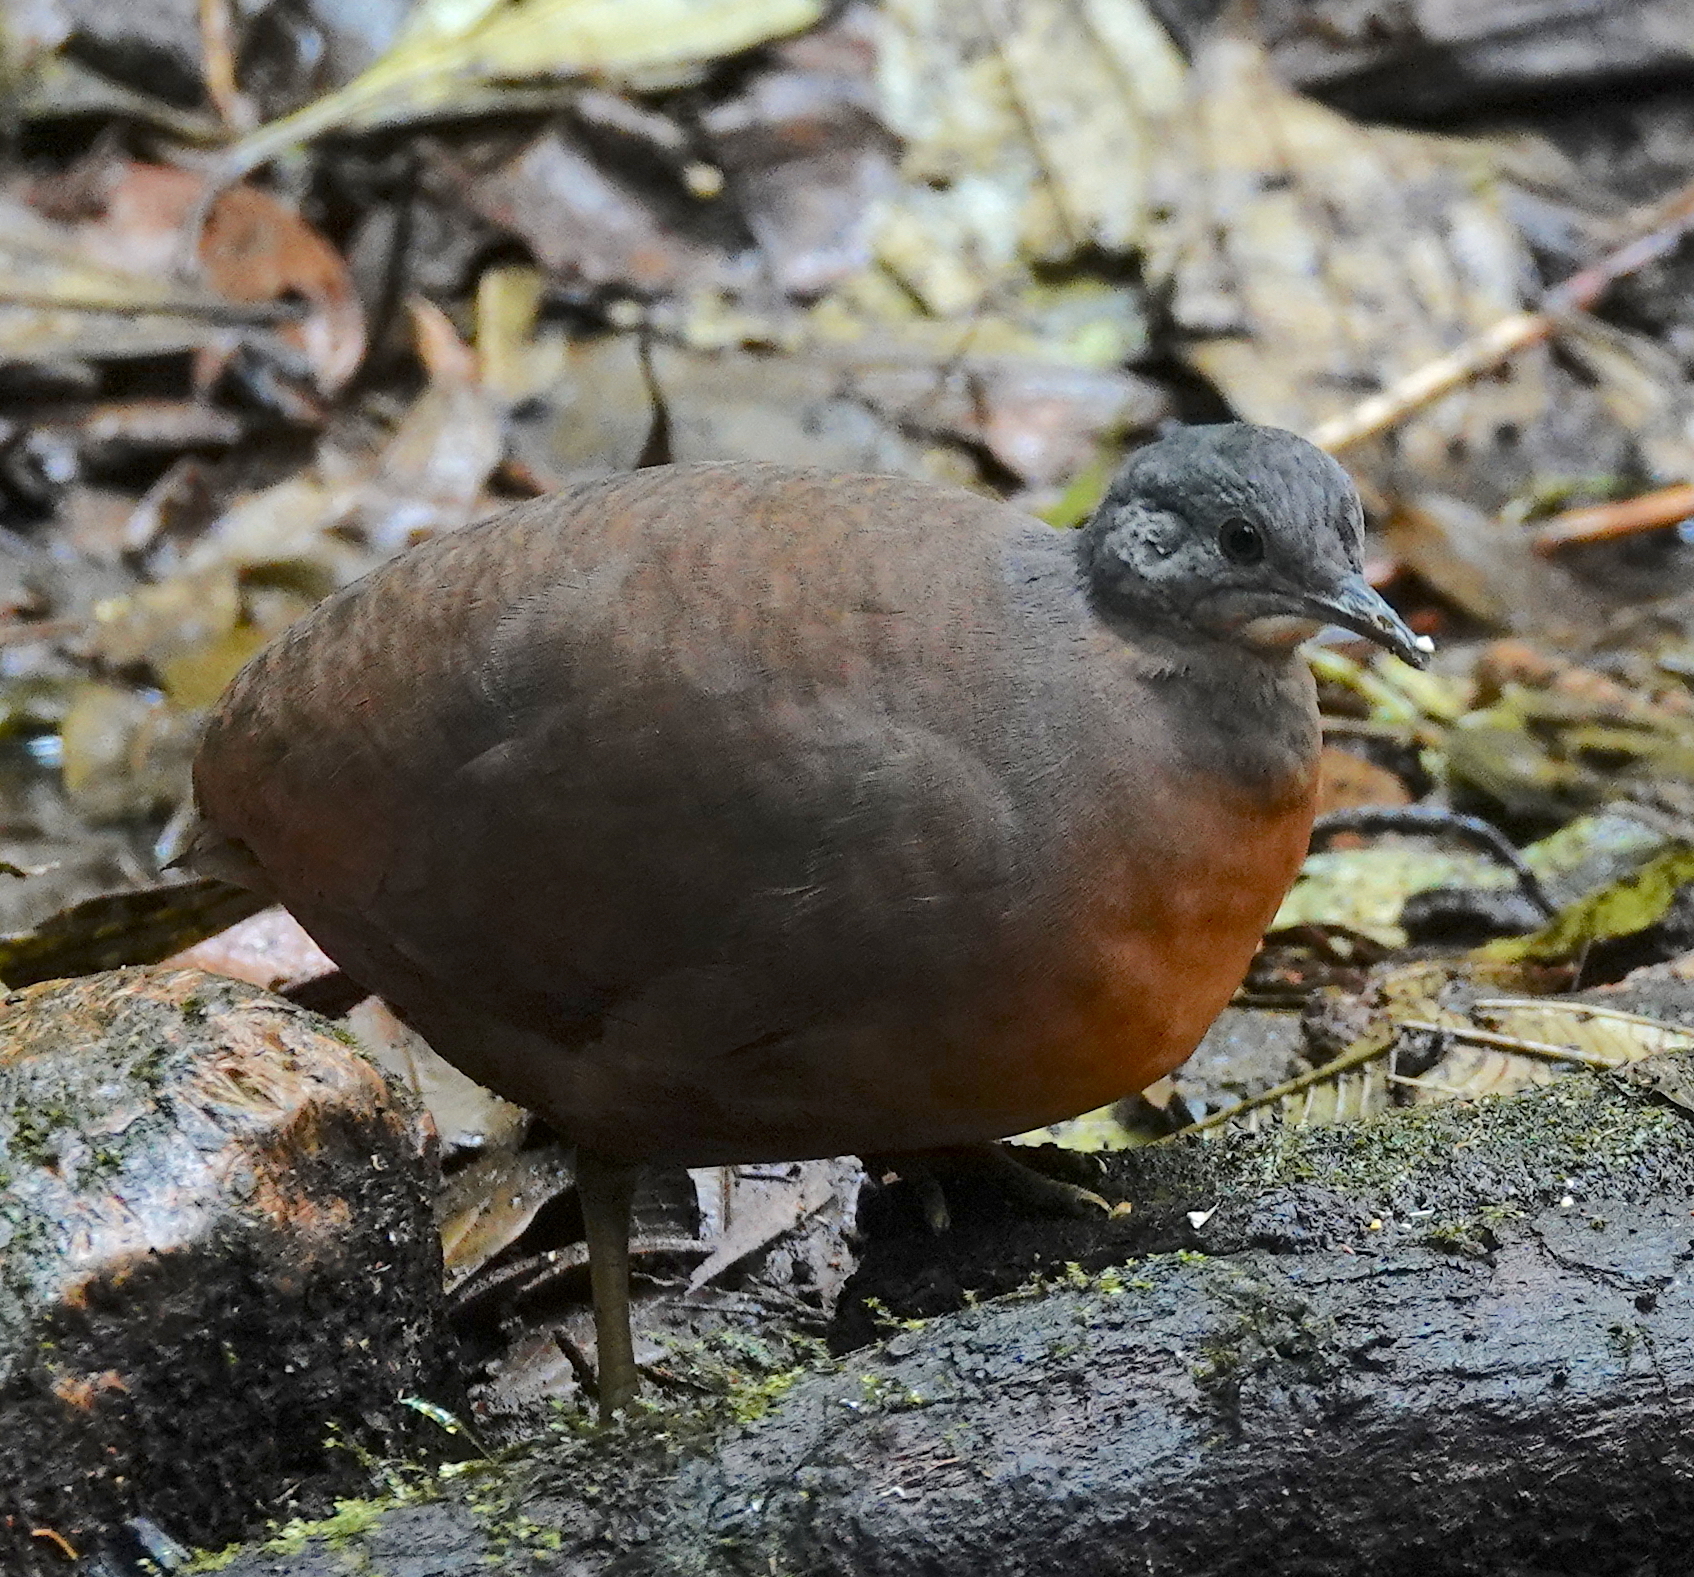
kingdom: Animalia
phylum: Chordata
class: Aves
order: Tinamiformes
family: Tinamidae
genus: Crypturellus
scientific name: Crypturellus soui
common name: Little tinamou
